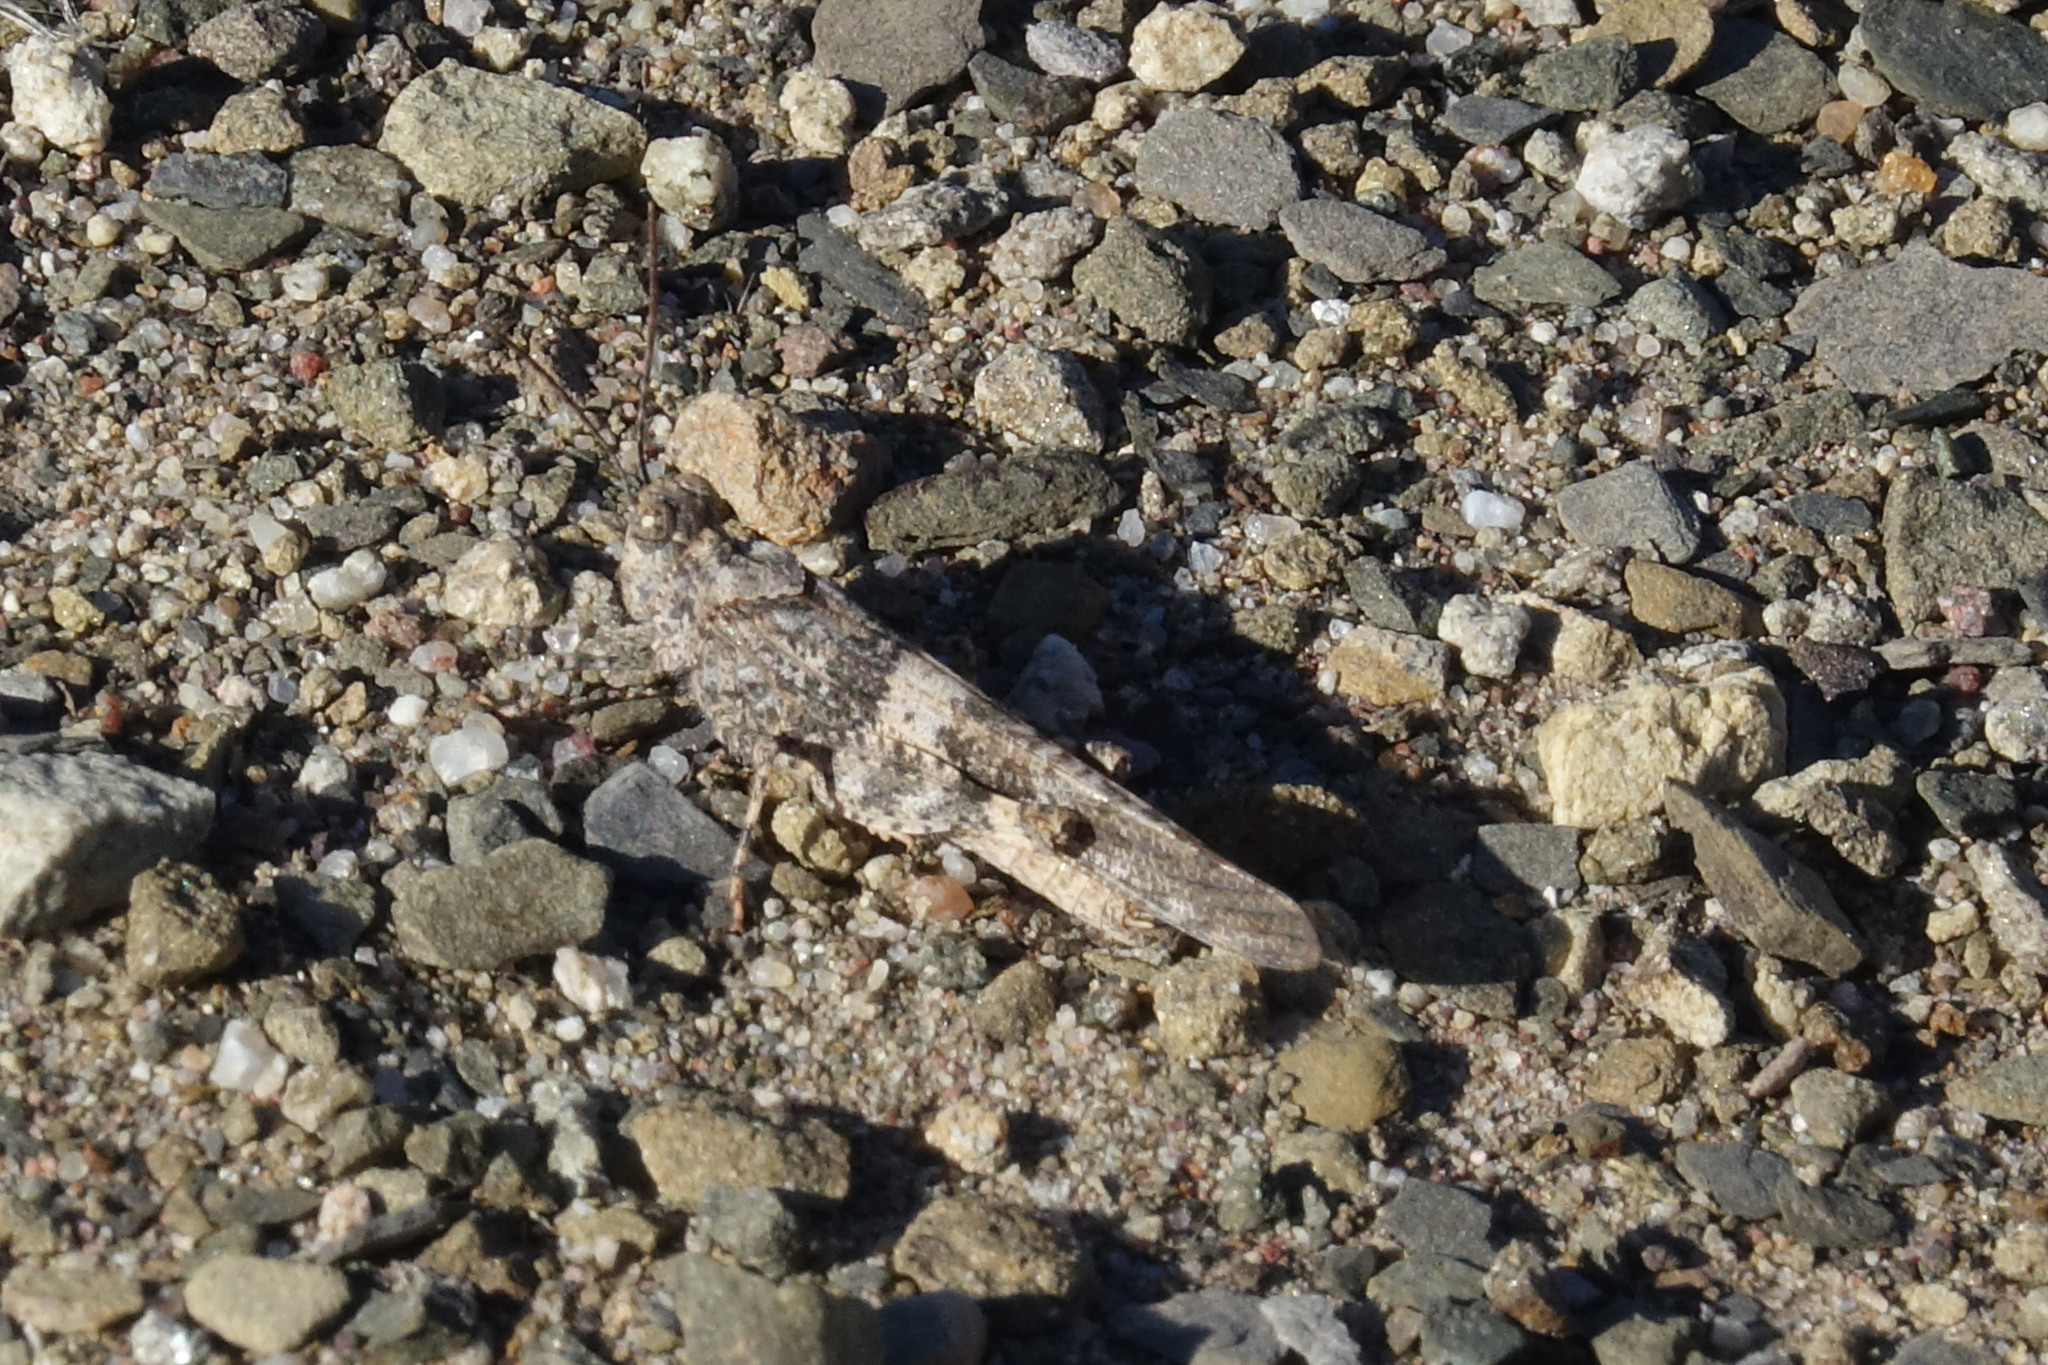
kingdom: Animalia
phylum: Arthropoda
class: Insecta
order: Orthoptera
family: Acrididae
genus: Trimerotropis
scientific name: Trimerotropis pallidipennis
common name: Pallid-winged grasshopper
